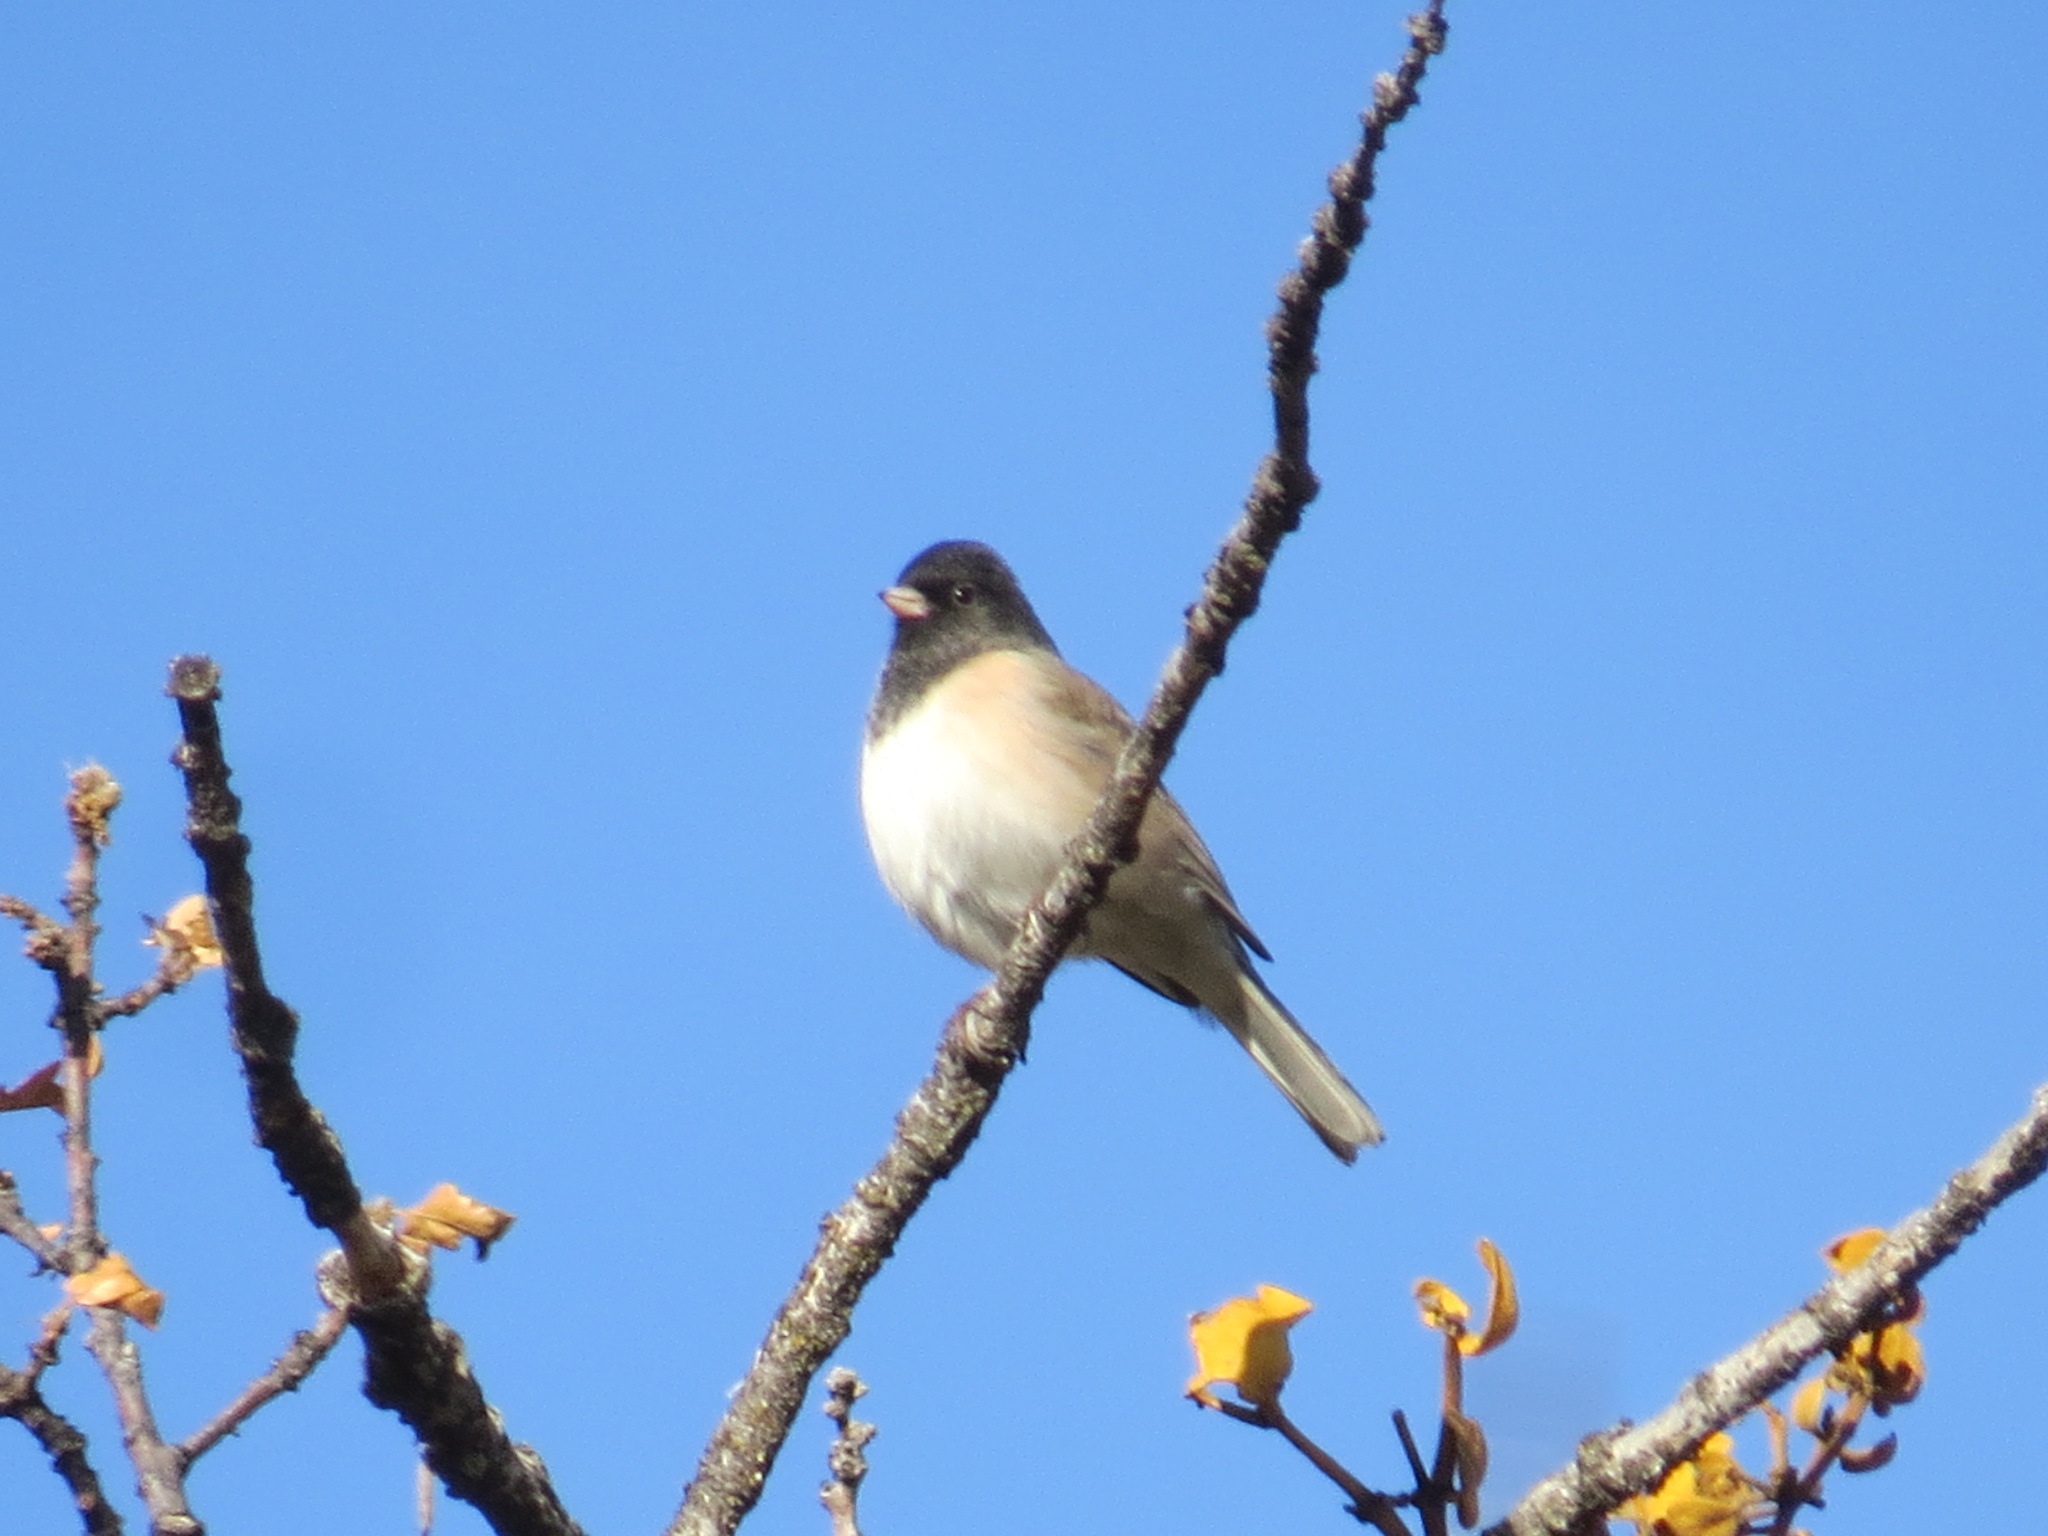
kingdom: Animalia
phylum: Chordata
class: Aves
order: Passeriformes
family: Passerellidae
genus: Junco
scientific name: Junco hyemalis
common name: Dark-eyed junco
